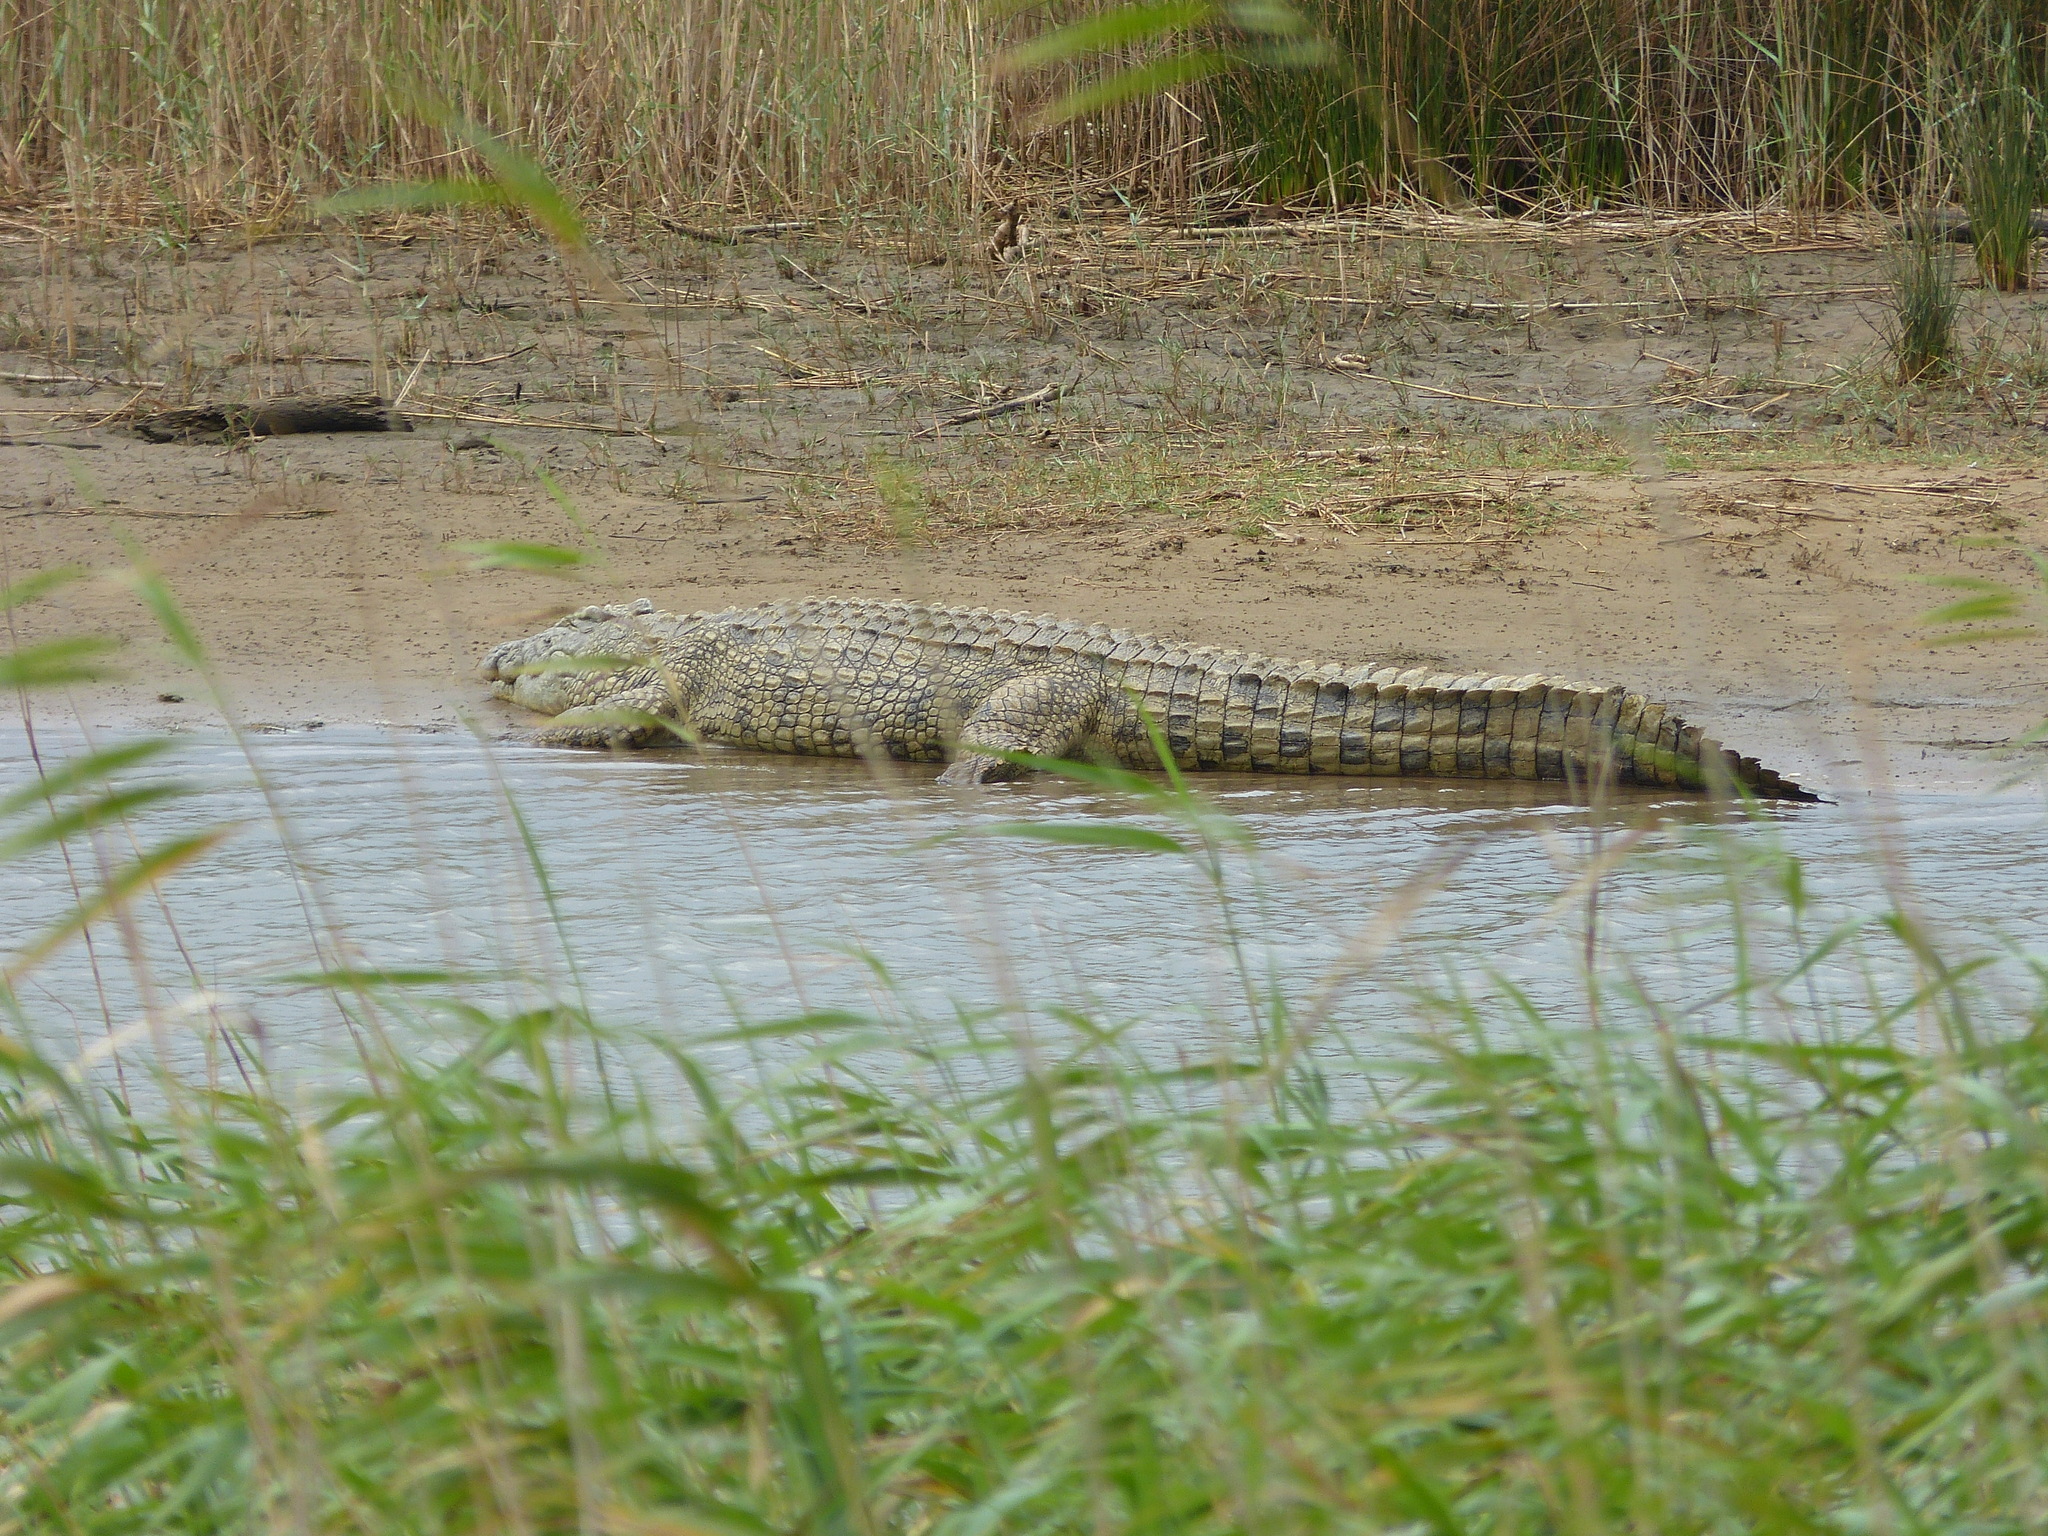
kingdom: Animalia
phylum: Chordata
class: Crocodylia
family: Crocodylidae
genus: Crocodylus
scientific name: Crocodylus niloticus
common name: Nile crocodile
